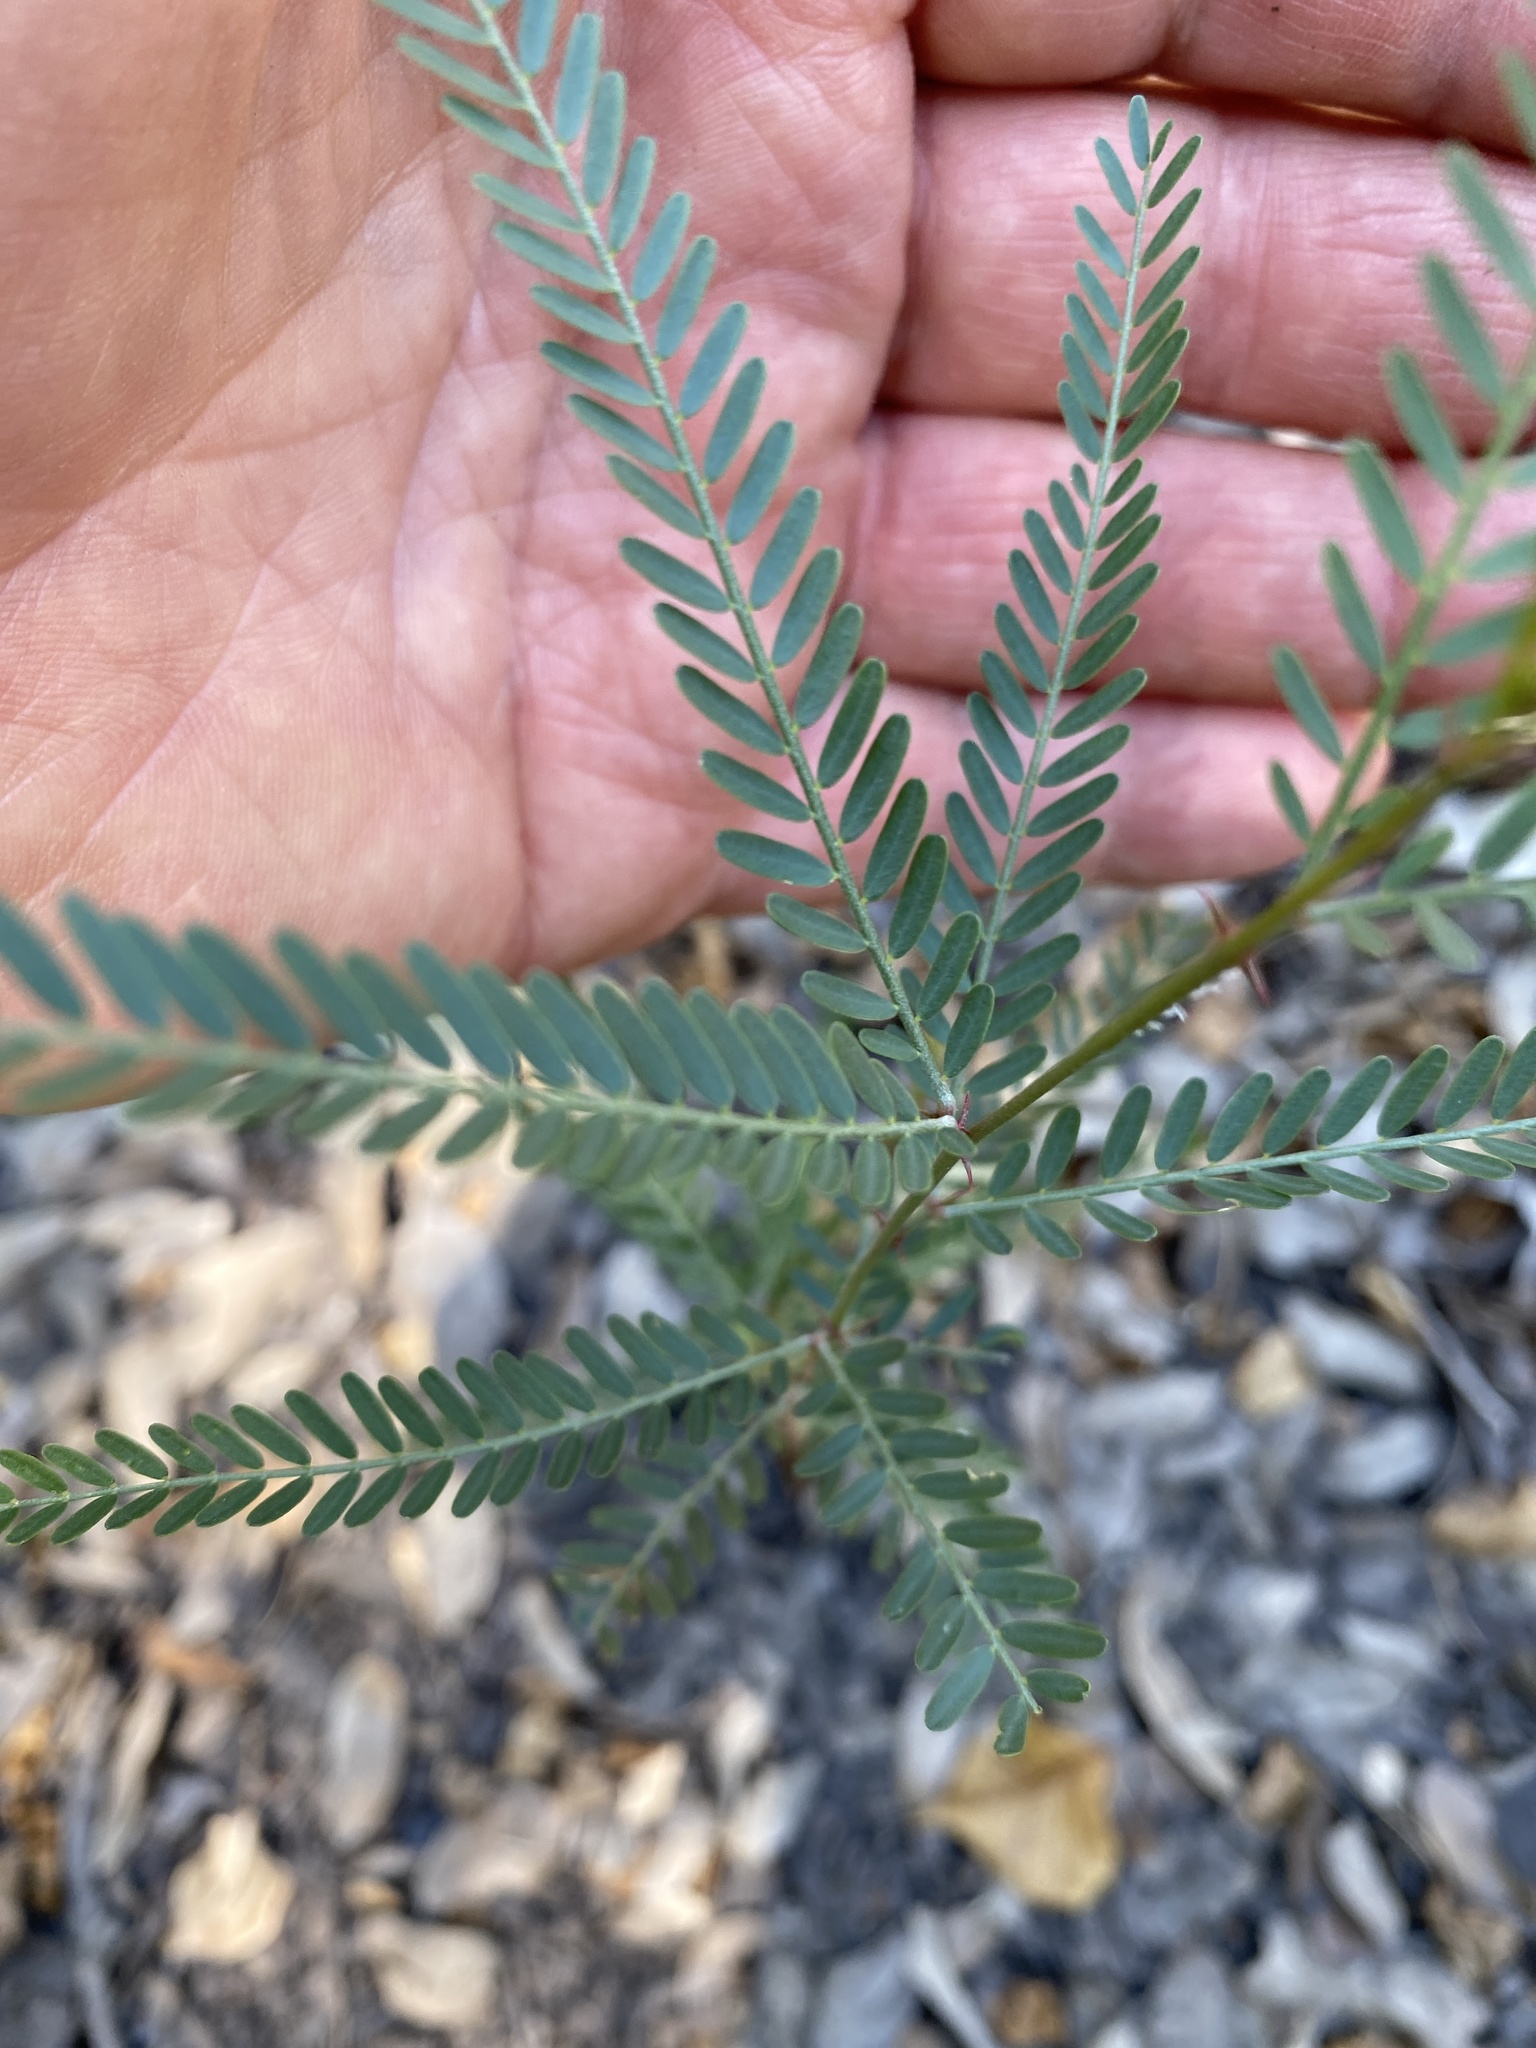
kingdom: Plantae
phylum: Tracheophyta
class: Magnoliopsida
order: Fabales
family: Fabaceae
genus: Parkinsonia
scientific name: Parkinsonia aculeata
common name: Jerusalem thorn
